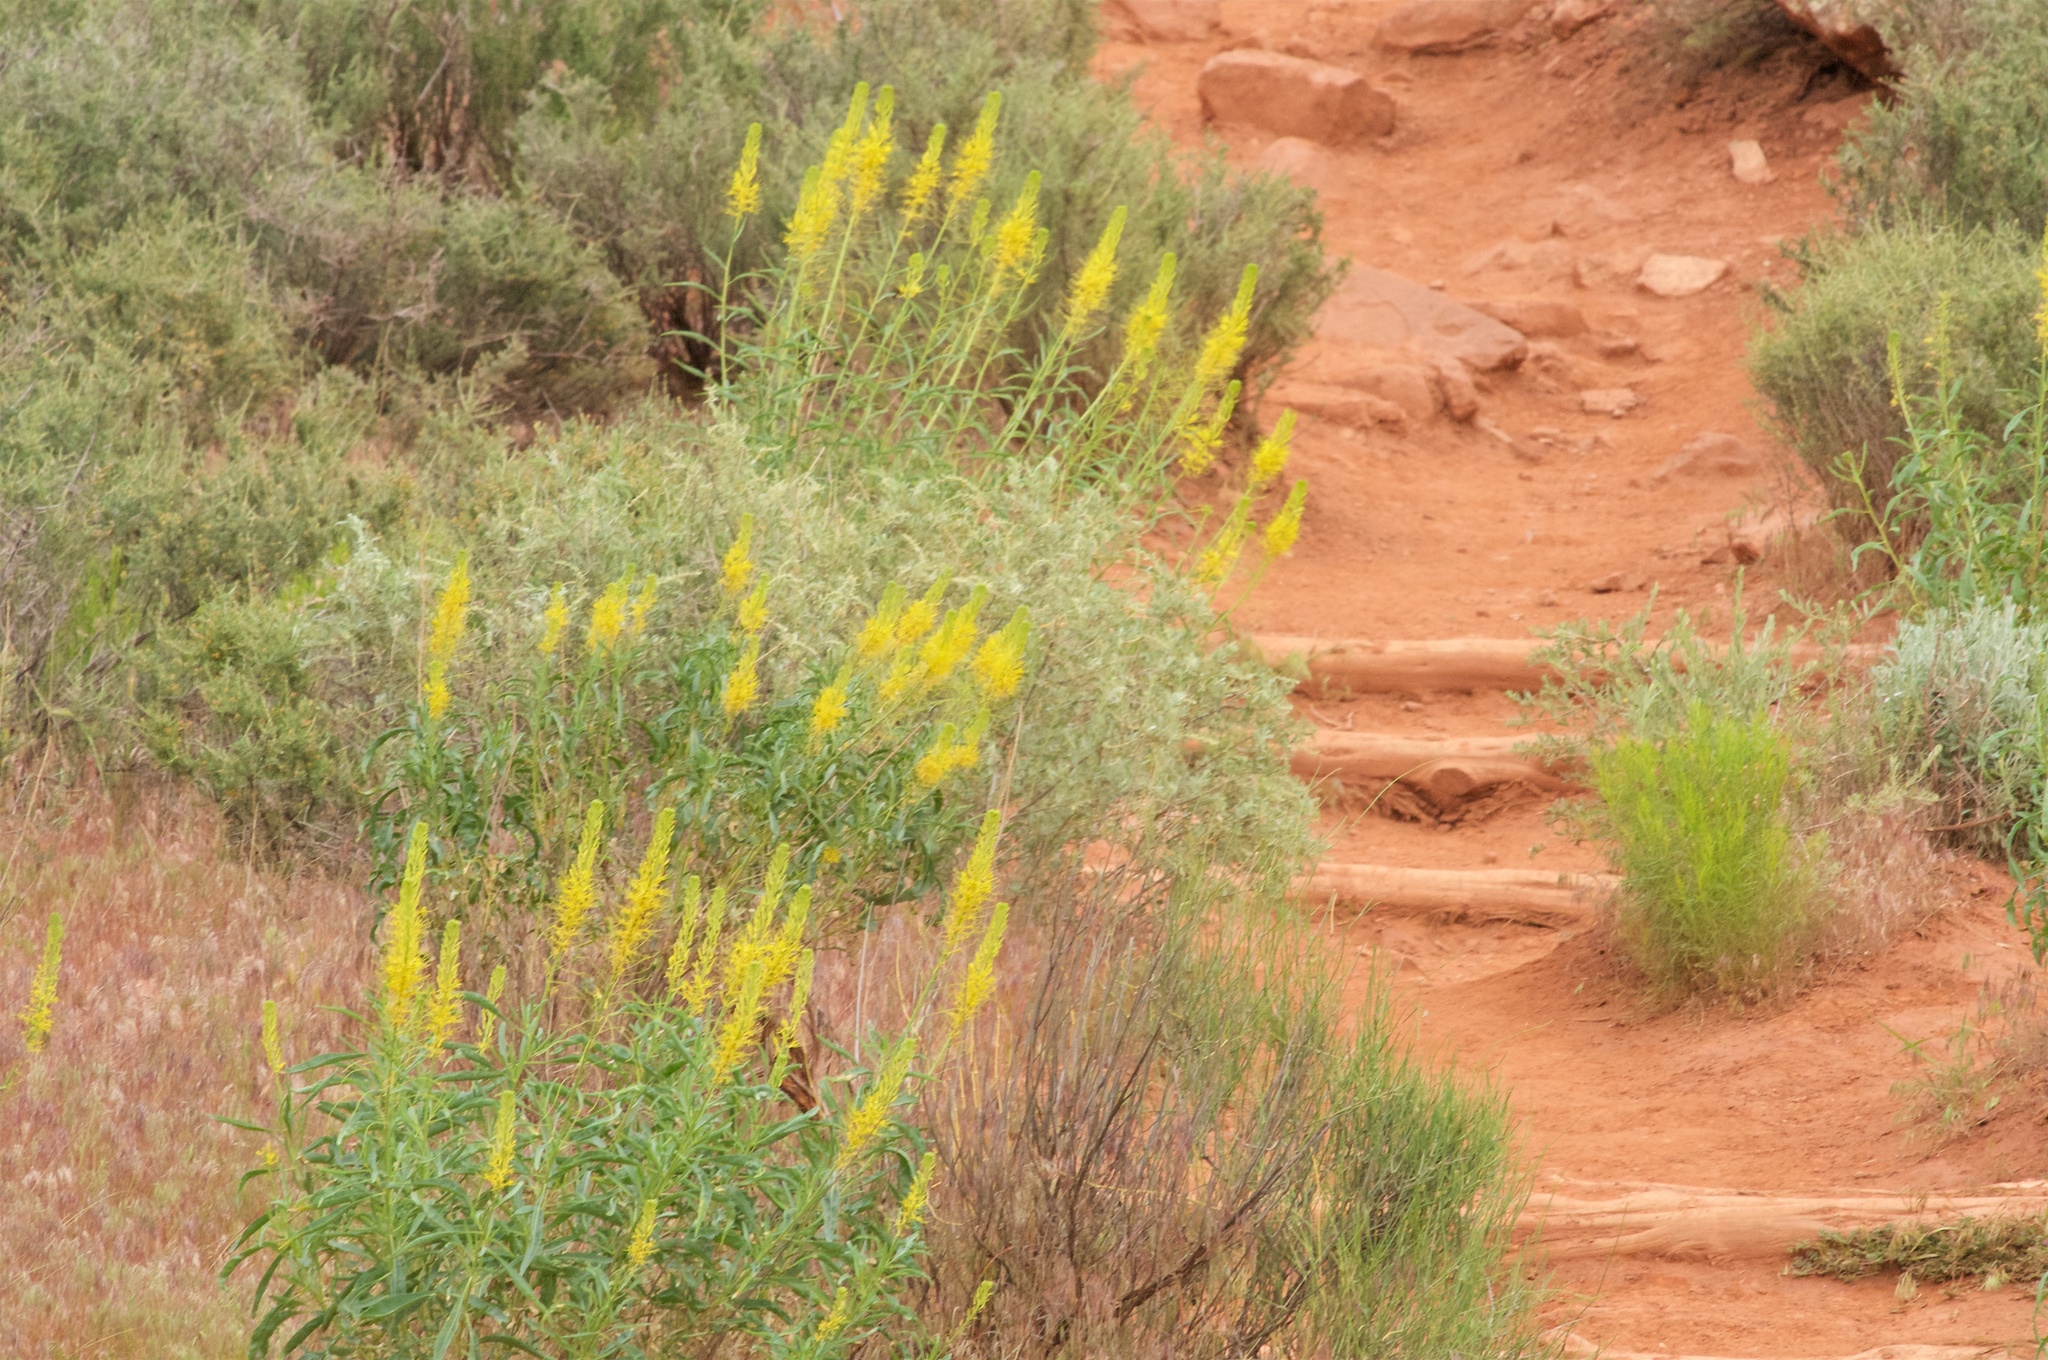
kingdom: Plantae
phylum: Tracheophyta
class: Magnoliopsida
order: Brassicales
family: Brassicaceae
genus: Stanleya
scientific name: Stanleya pinnata
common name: Prince's-plume
